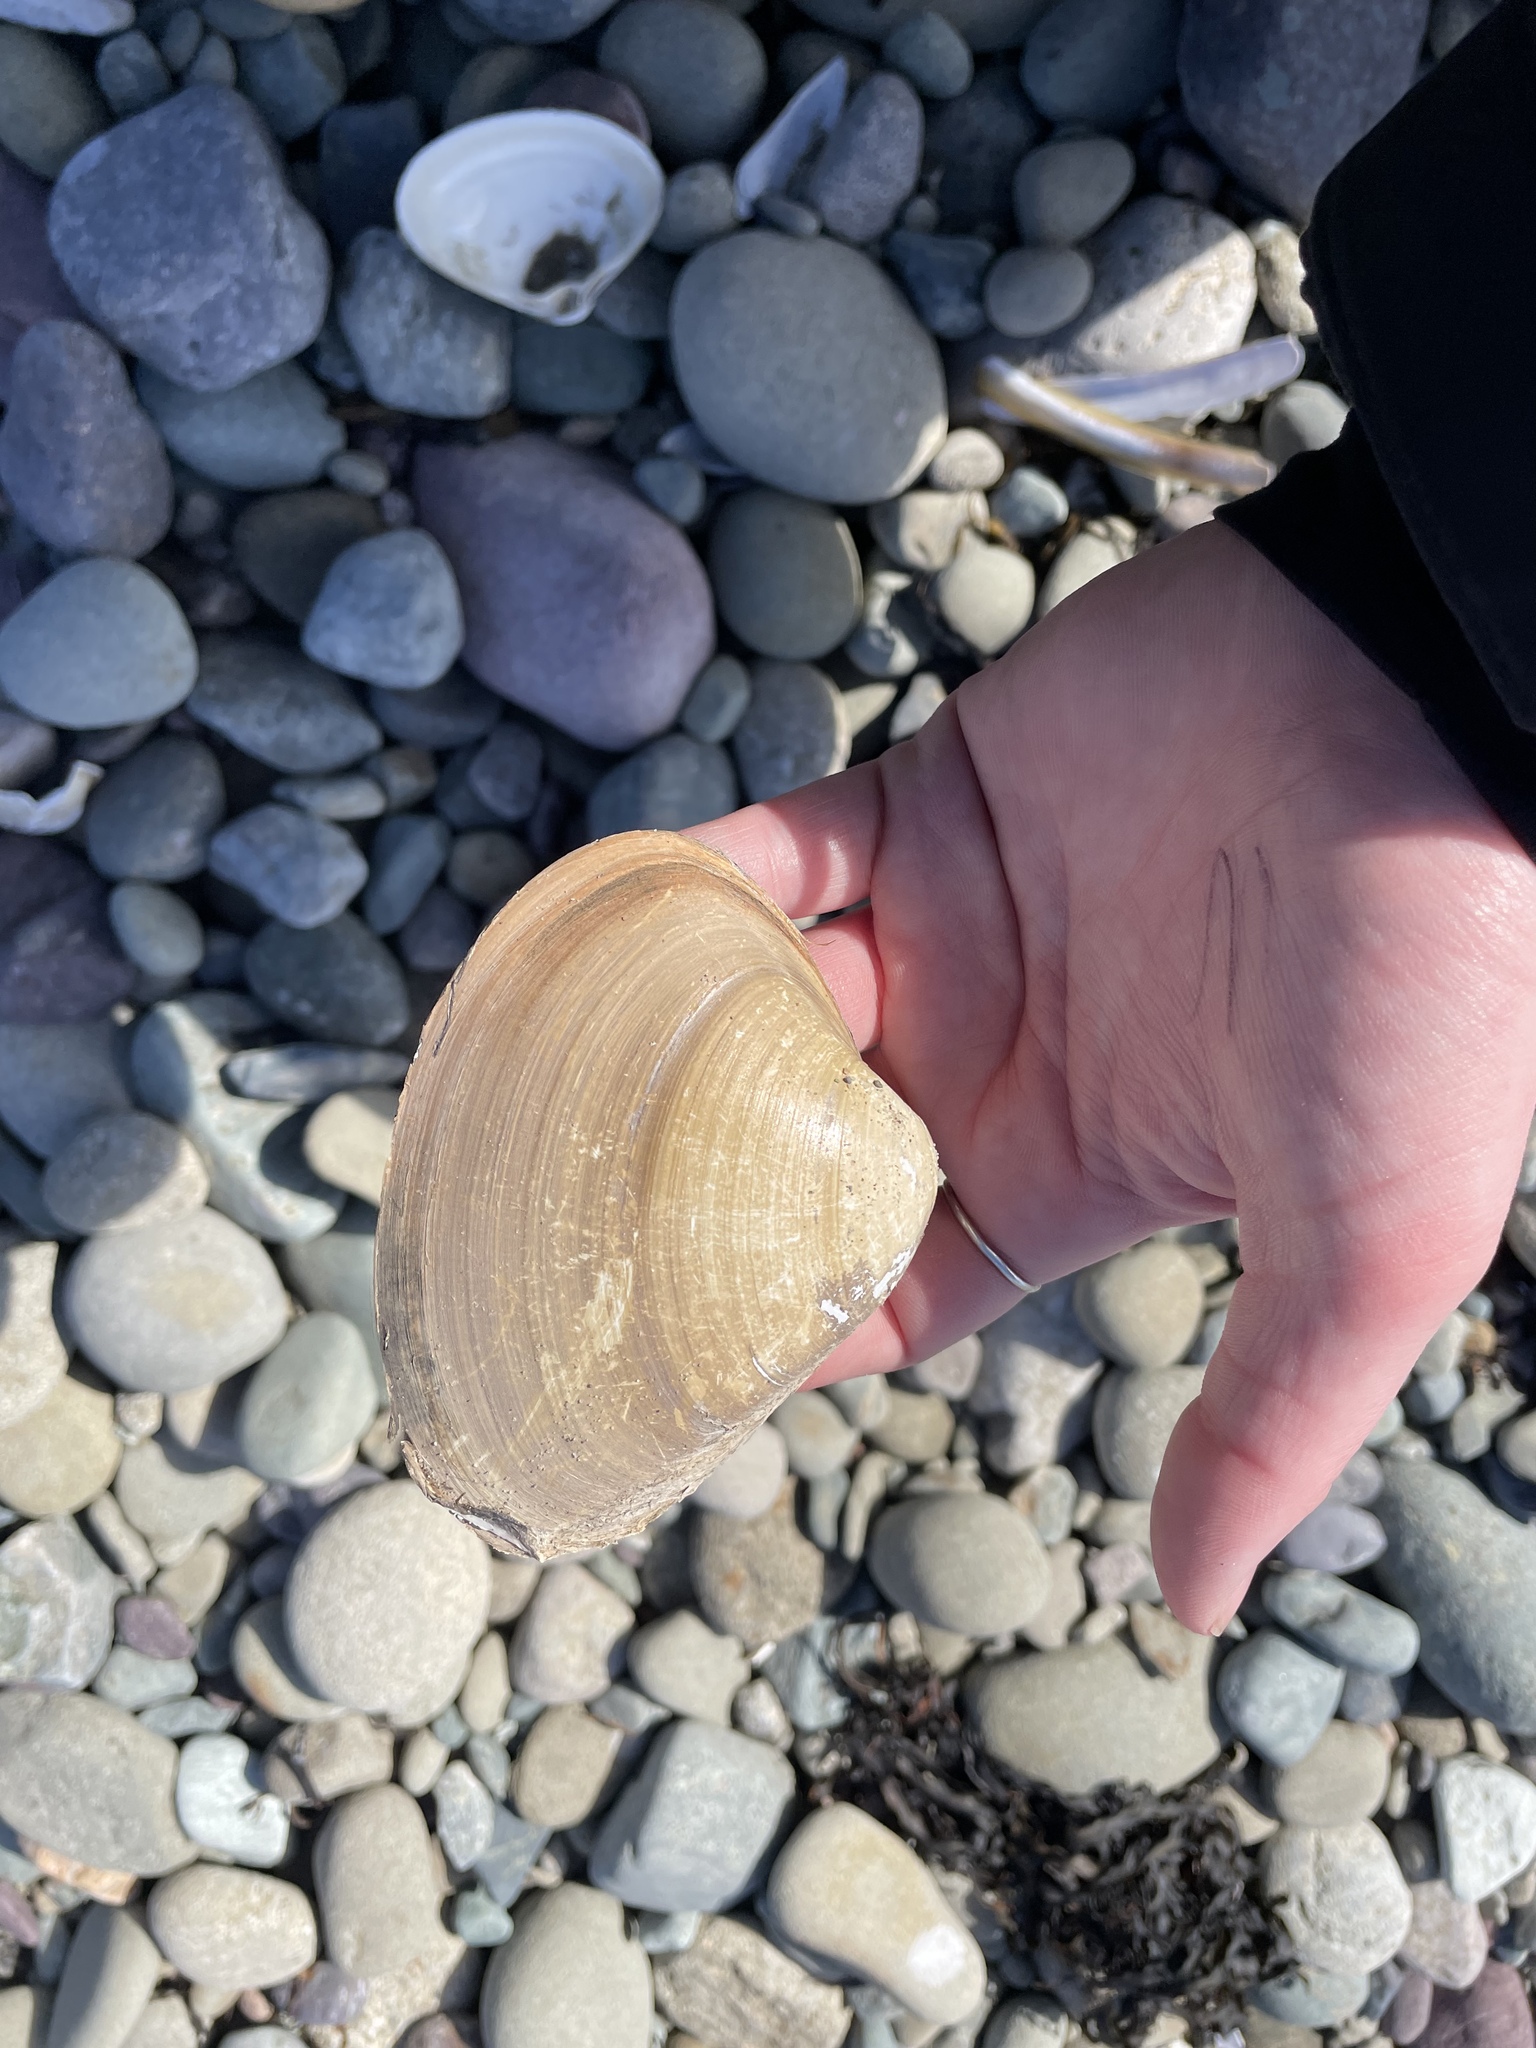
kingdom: Animalia
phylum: Mollusca
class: Bivalvia
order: Venerida
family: Mactridae
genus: Spisula
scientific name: Spisula solidissima
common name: Atlantic surf clam
